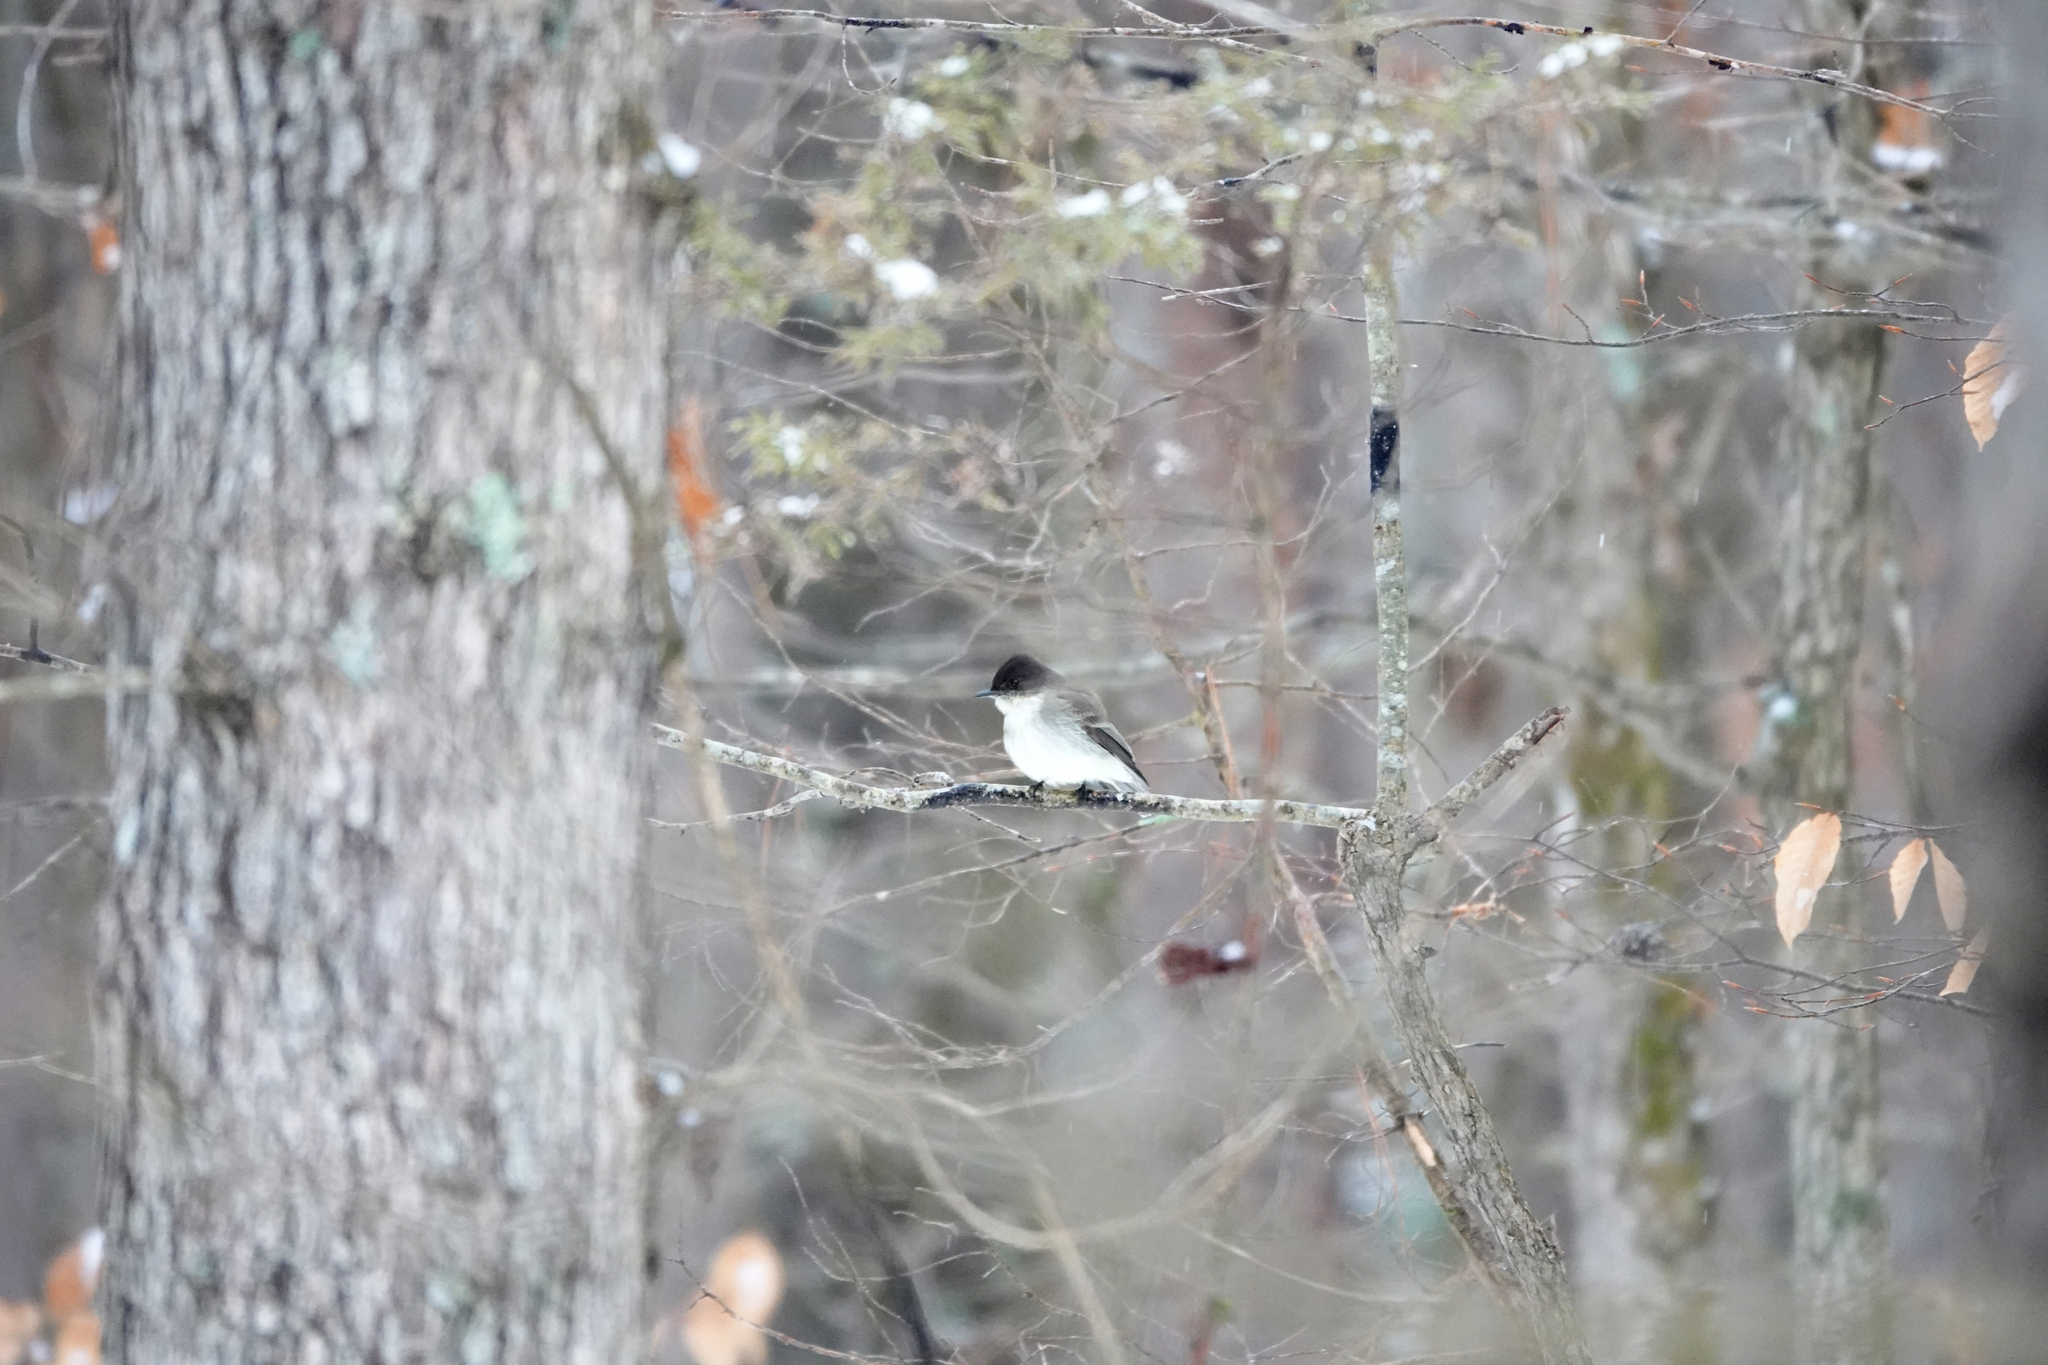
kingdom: Animalia
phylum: Chordata
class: Aves
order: Passeriformes
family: Tyrannidae
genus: Sayornis
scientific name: Sayornis phoebe
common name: Eastern phoebe
